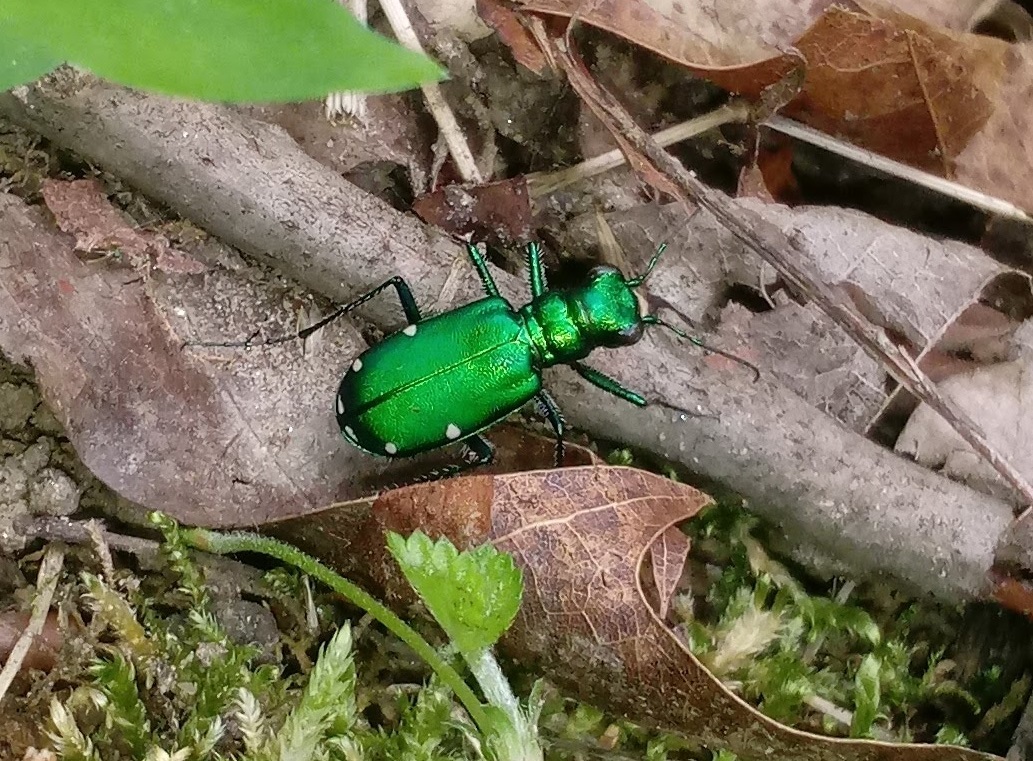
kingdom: Animalia
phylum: Arthropoda
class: Insecta
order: Coleoptera
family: Carabidae
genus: Cicindela
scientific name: Cicindela sexguttata
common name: Six-spotted tiger beetle
